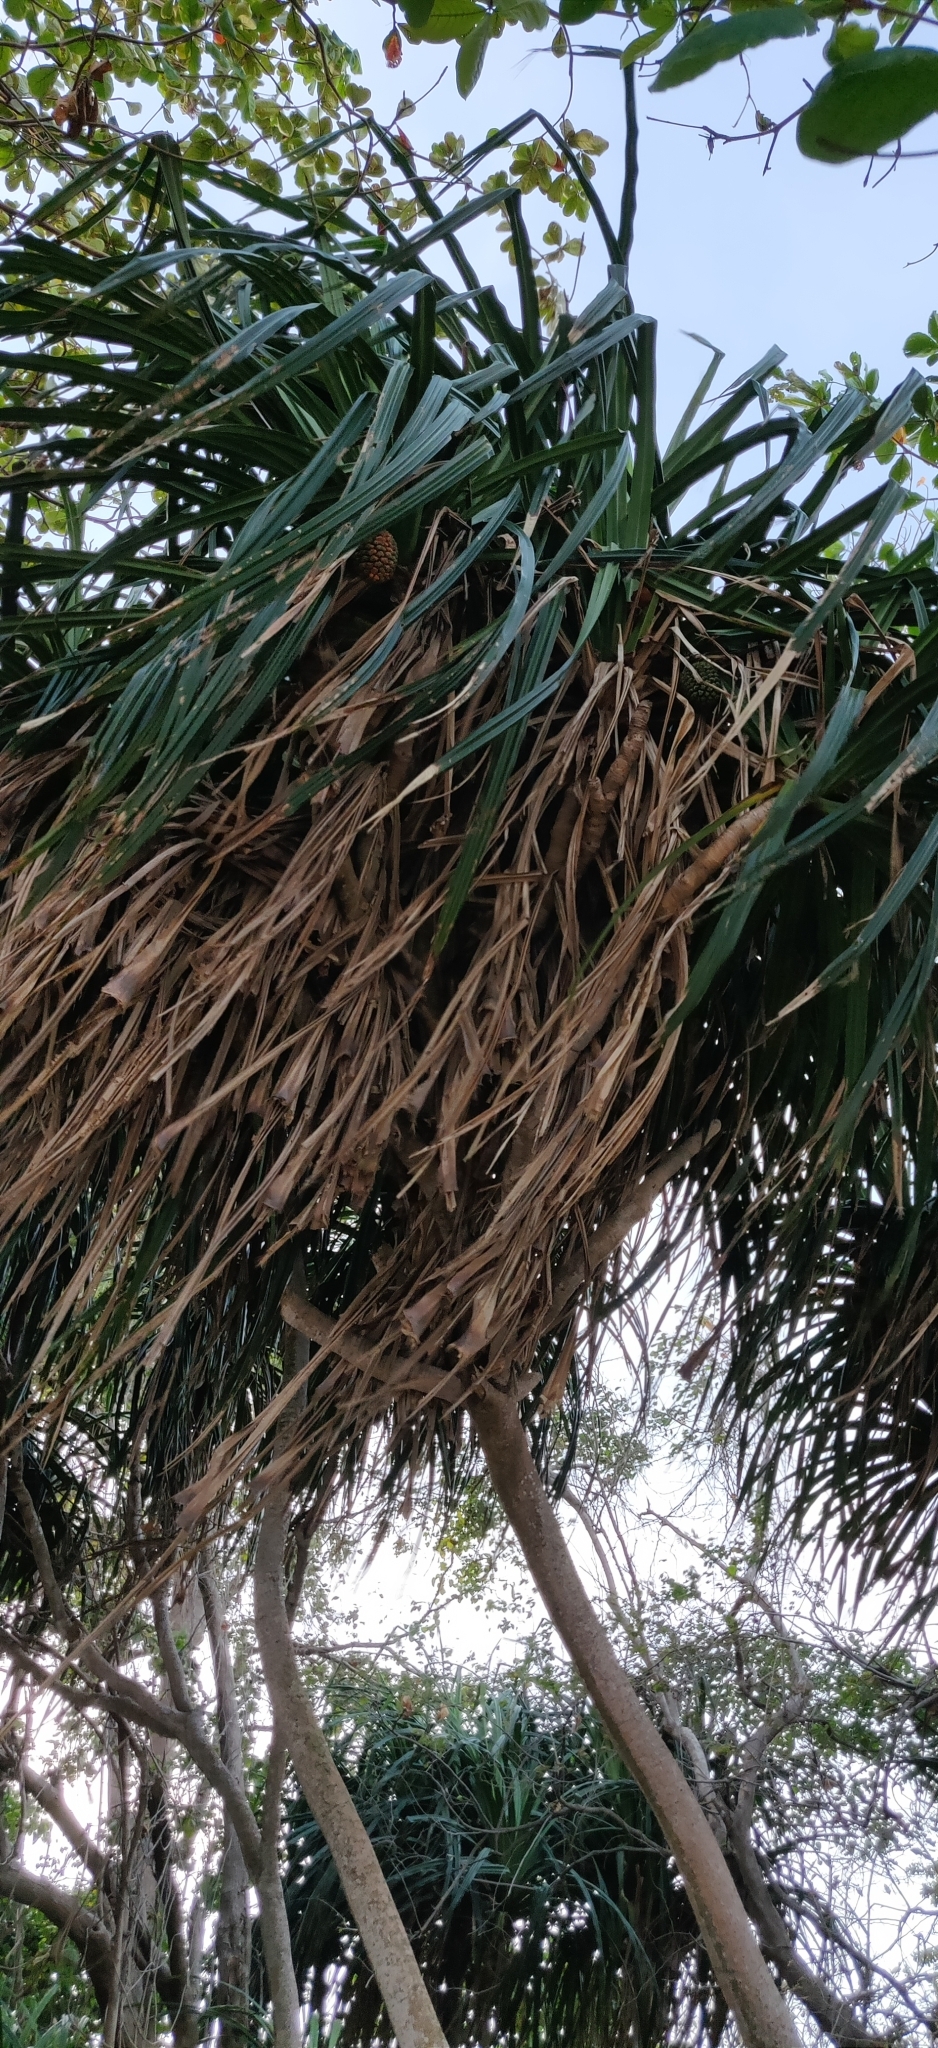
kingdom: Plantae
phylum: Tracheophyta
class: Liliopsida
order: Pandanales
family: Pandanaceae
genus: Pandanus
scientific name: Pandanus tectorius
